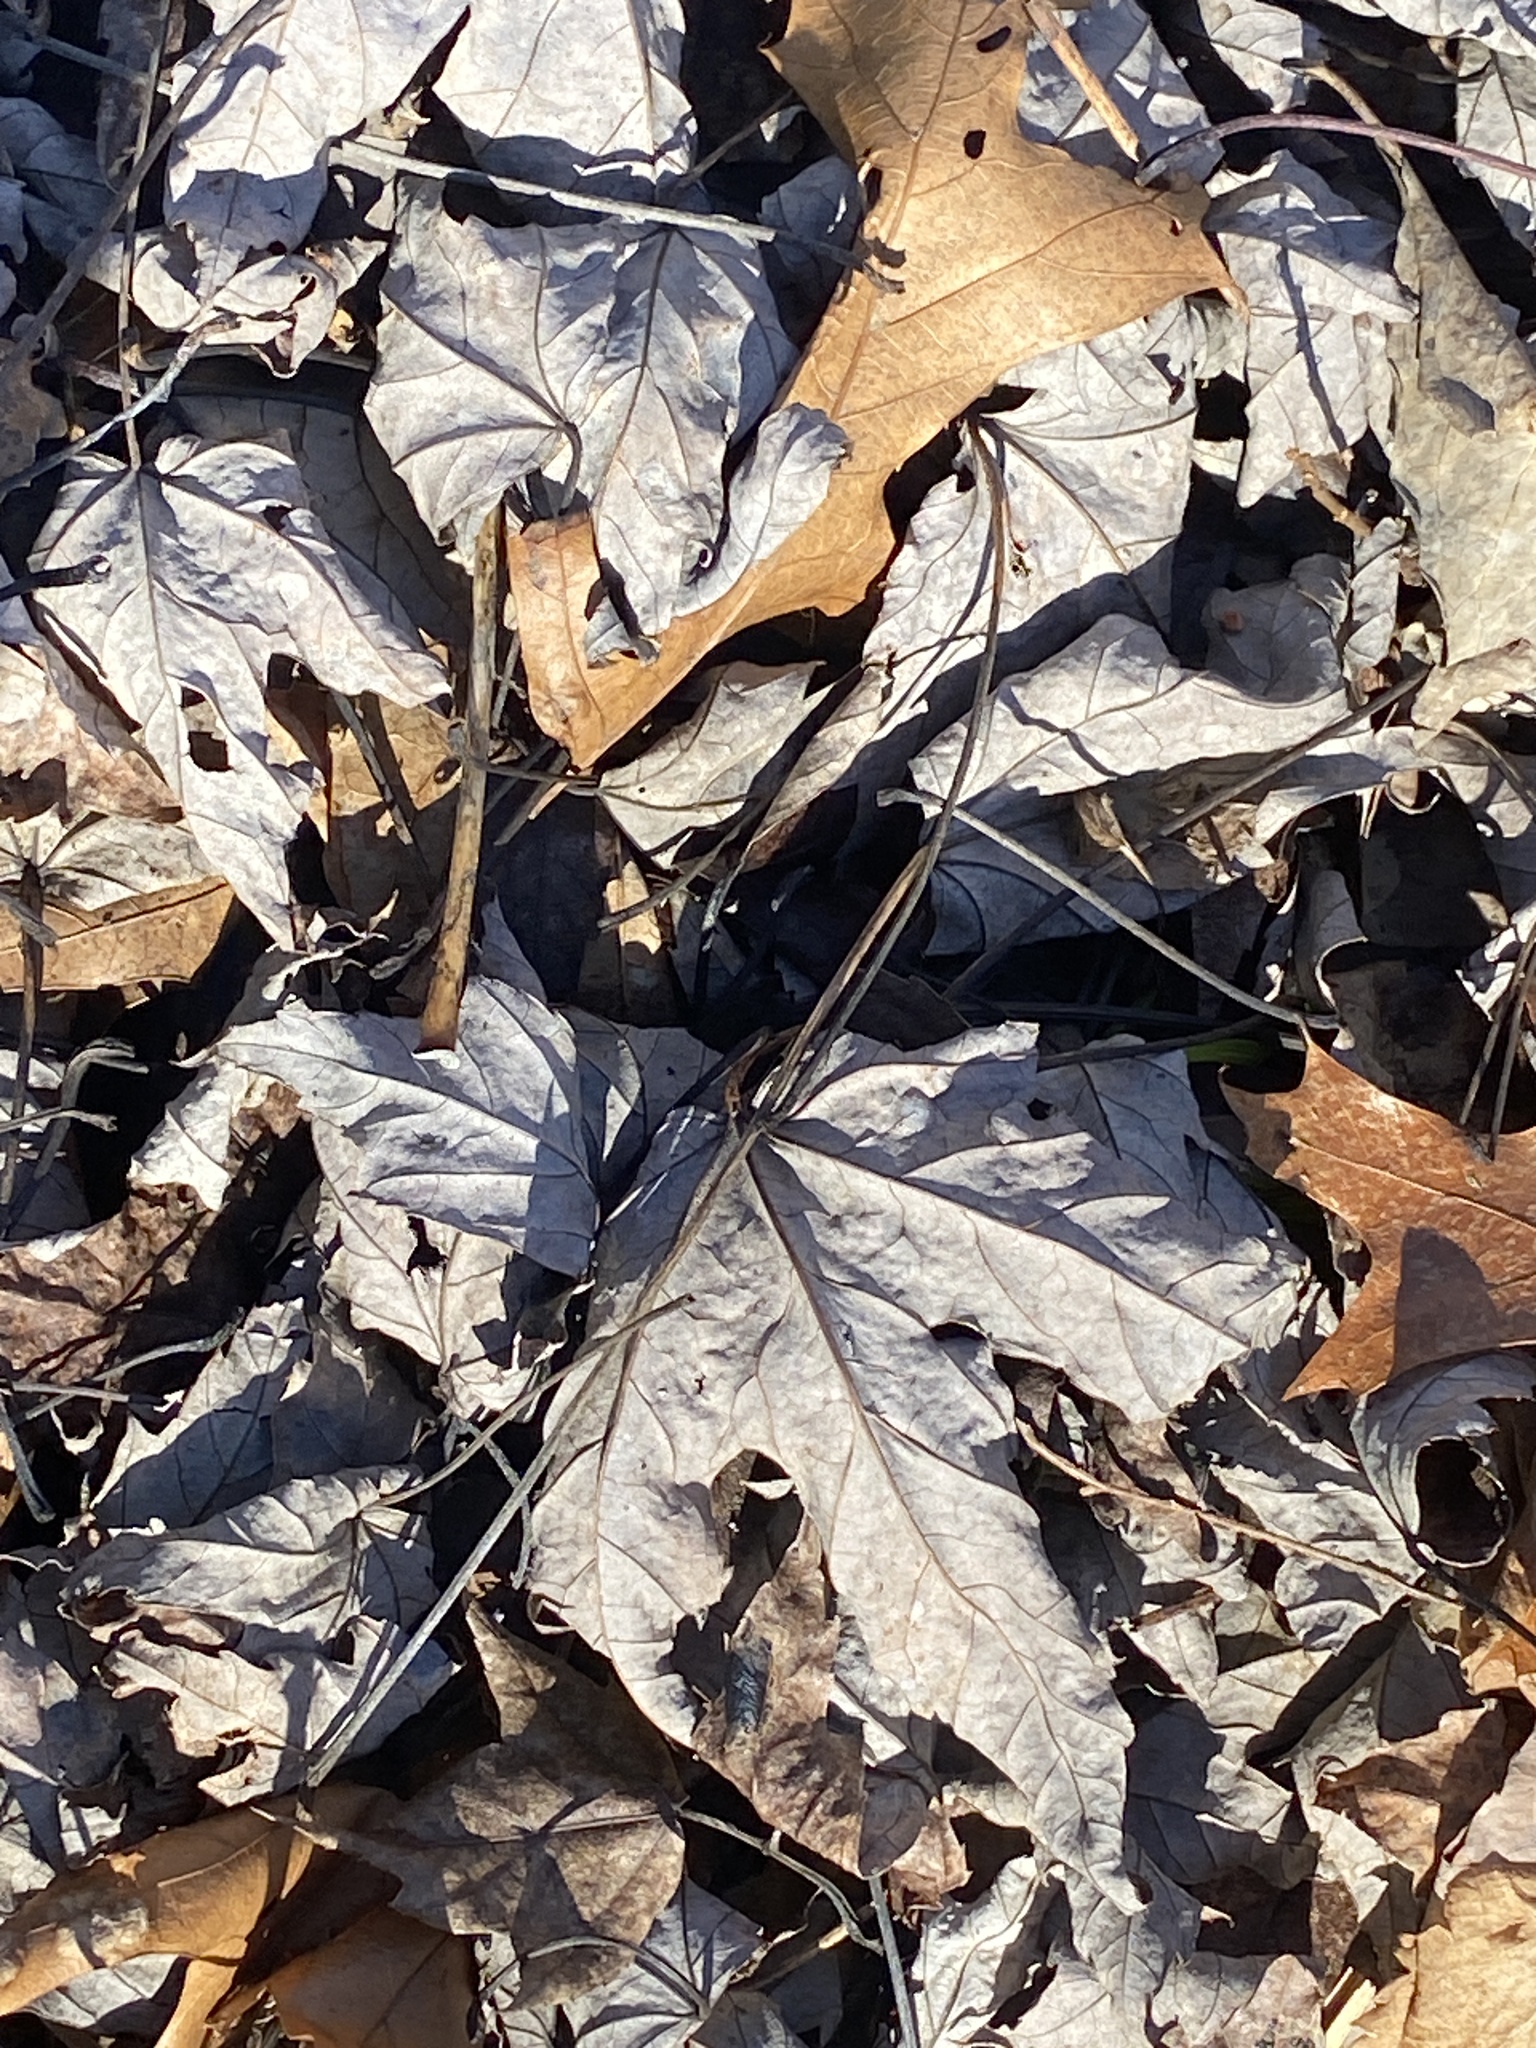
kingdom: Plantae
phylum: Tracheophyta
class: Magnoliopsida
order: Sapindales
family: Sapindaceae
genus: Acer
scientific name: Acer saccharinum
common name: Silver maple
